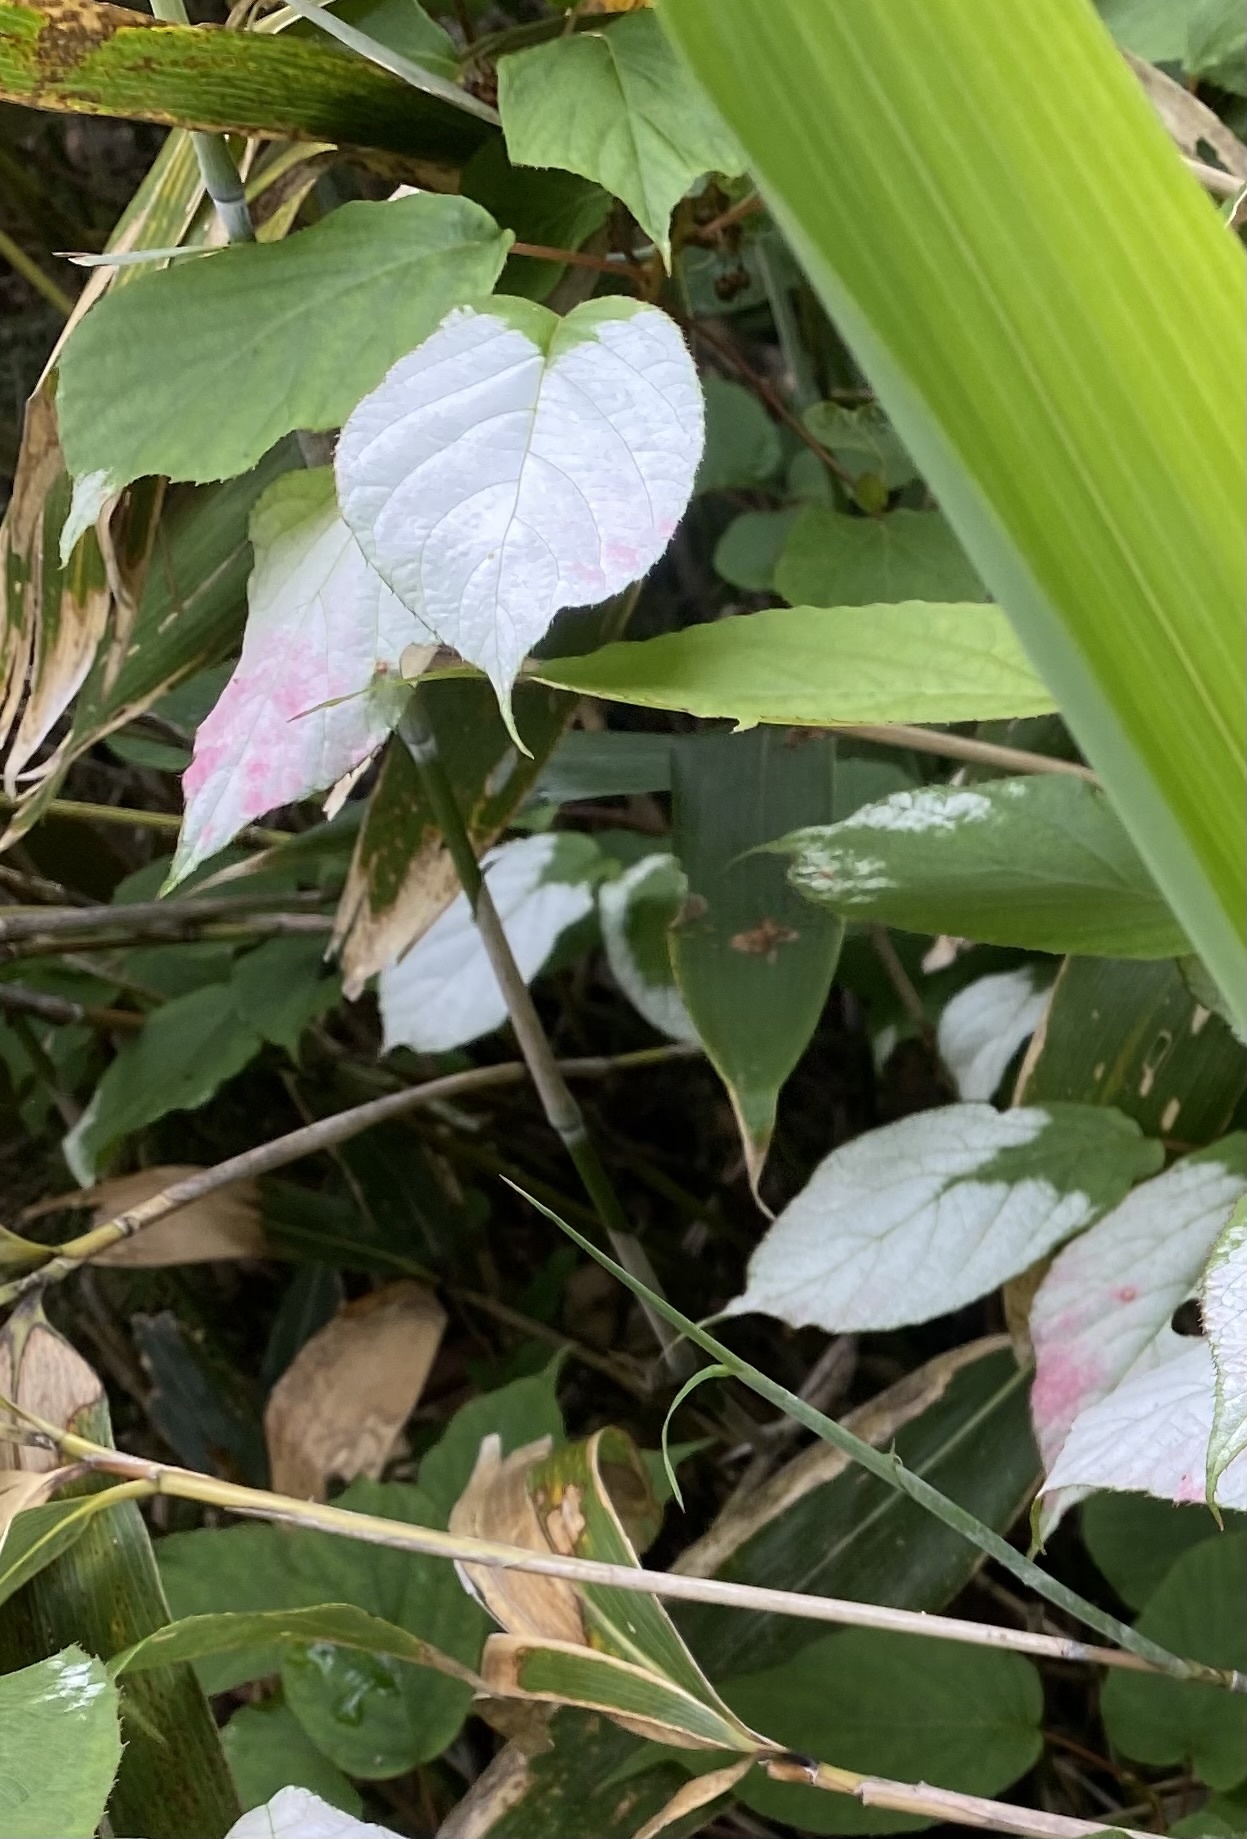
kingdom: Plantae
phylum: Tracheophyta
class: Magnoliopsida
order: Ericales
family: Actinidiaceae
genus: Actinidia
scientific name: Actinidia kolomikta
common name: Arctic beauty kiwi
